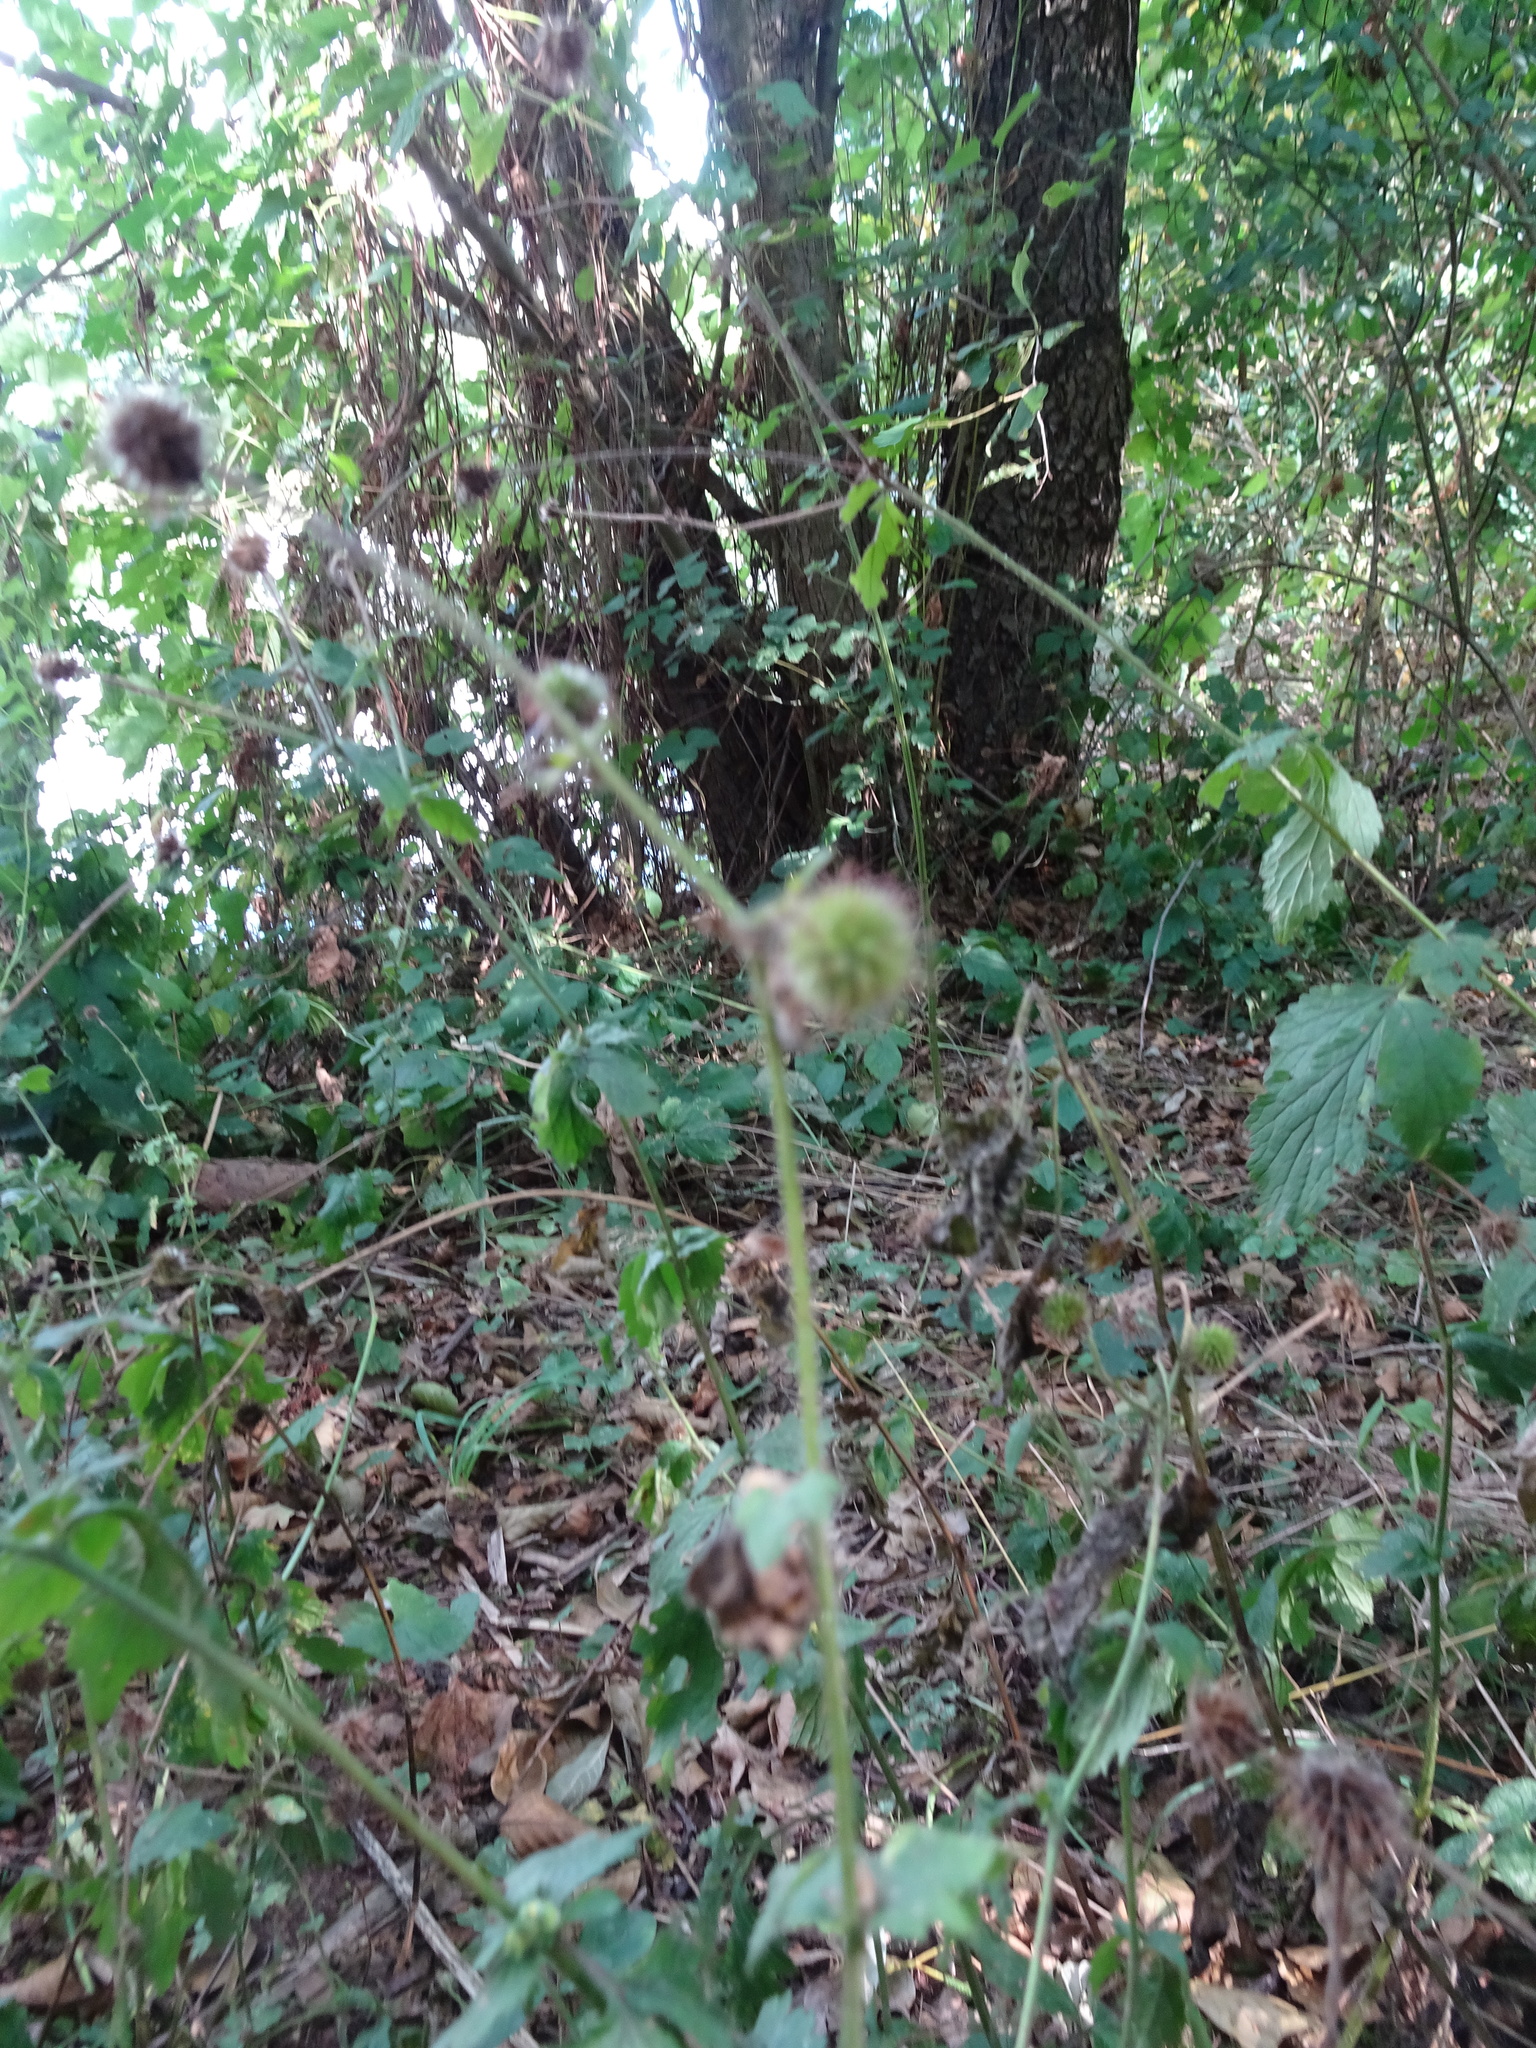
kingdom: Plantae
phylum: Tracheophyta
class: Magnoliopsida
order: Rosales
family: Rosaceae
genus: Geum
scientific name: Geum urbanum
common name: Wood avens
